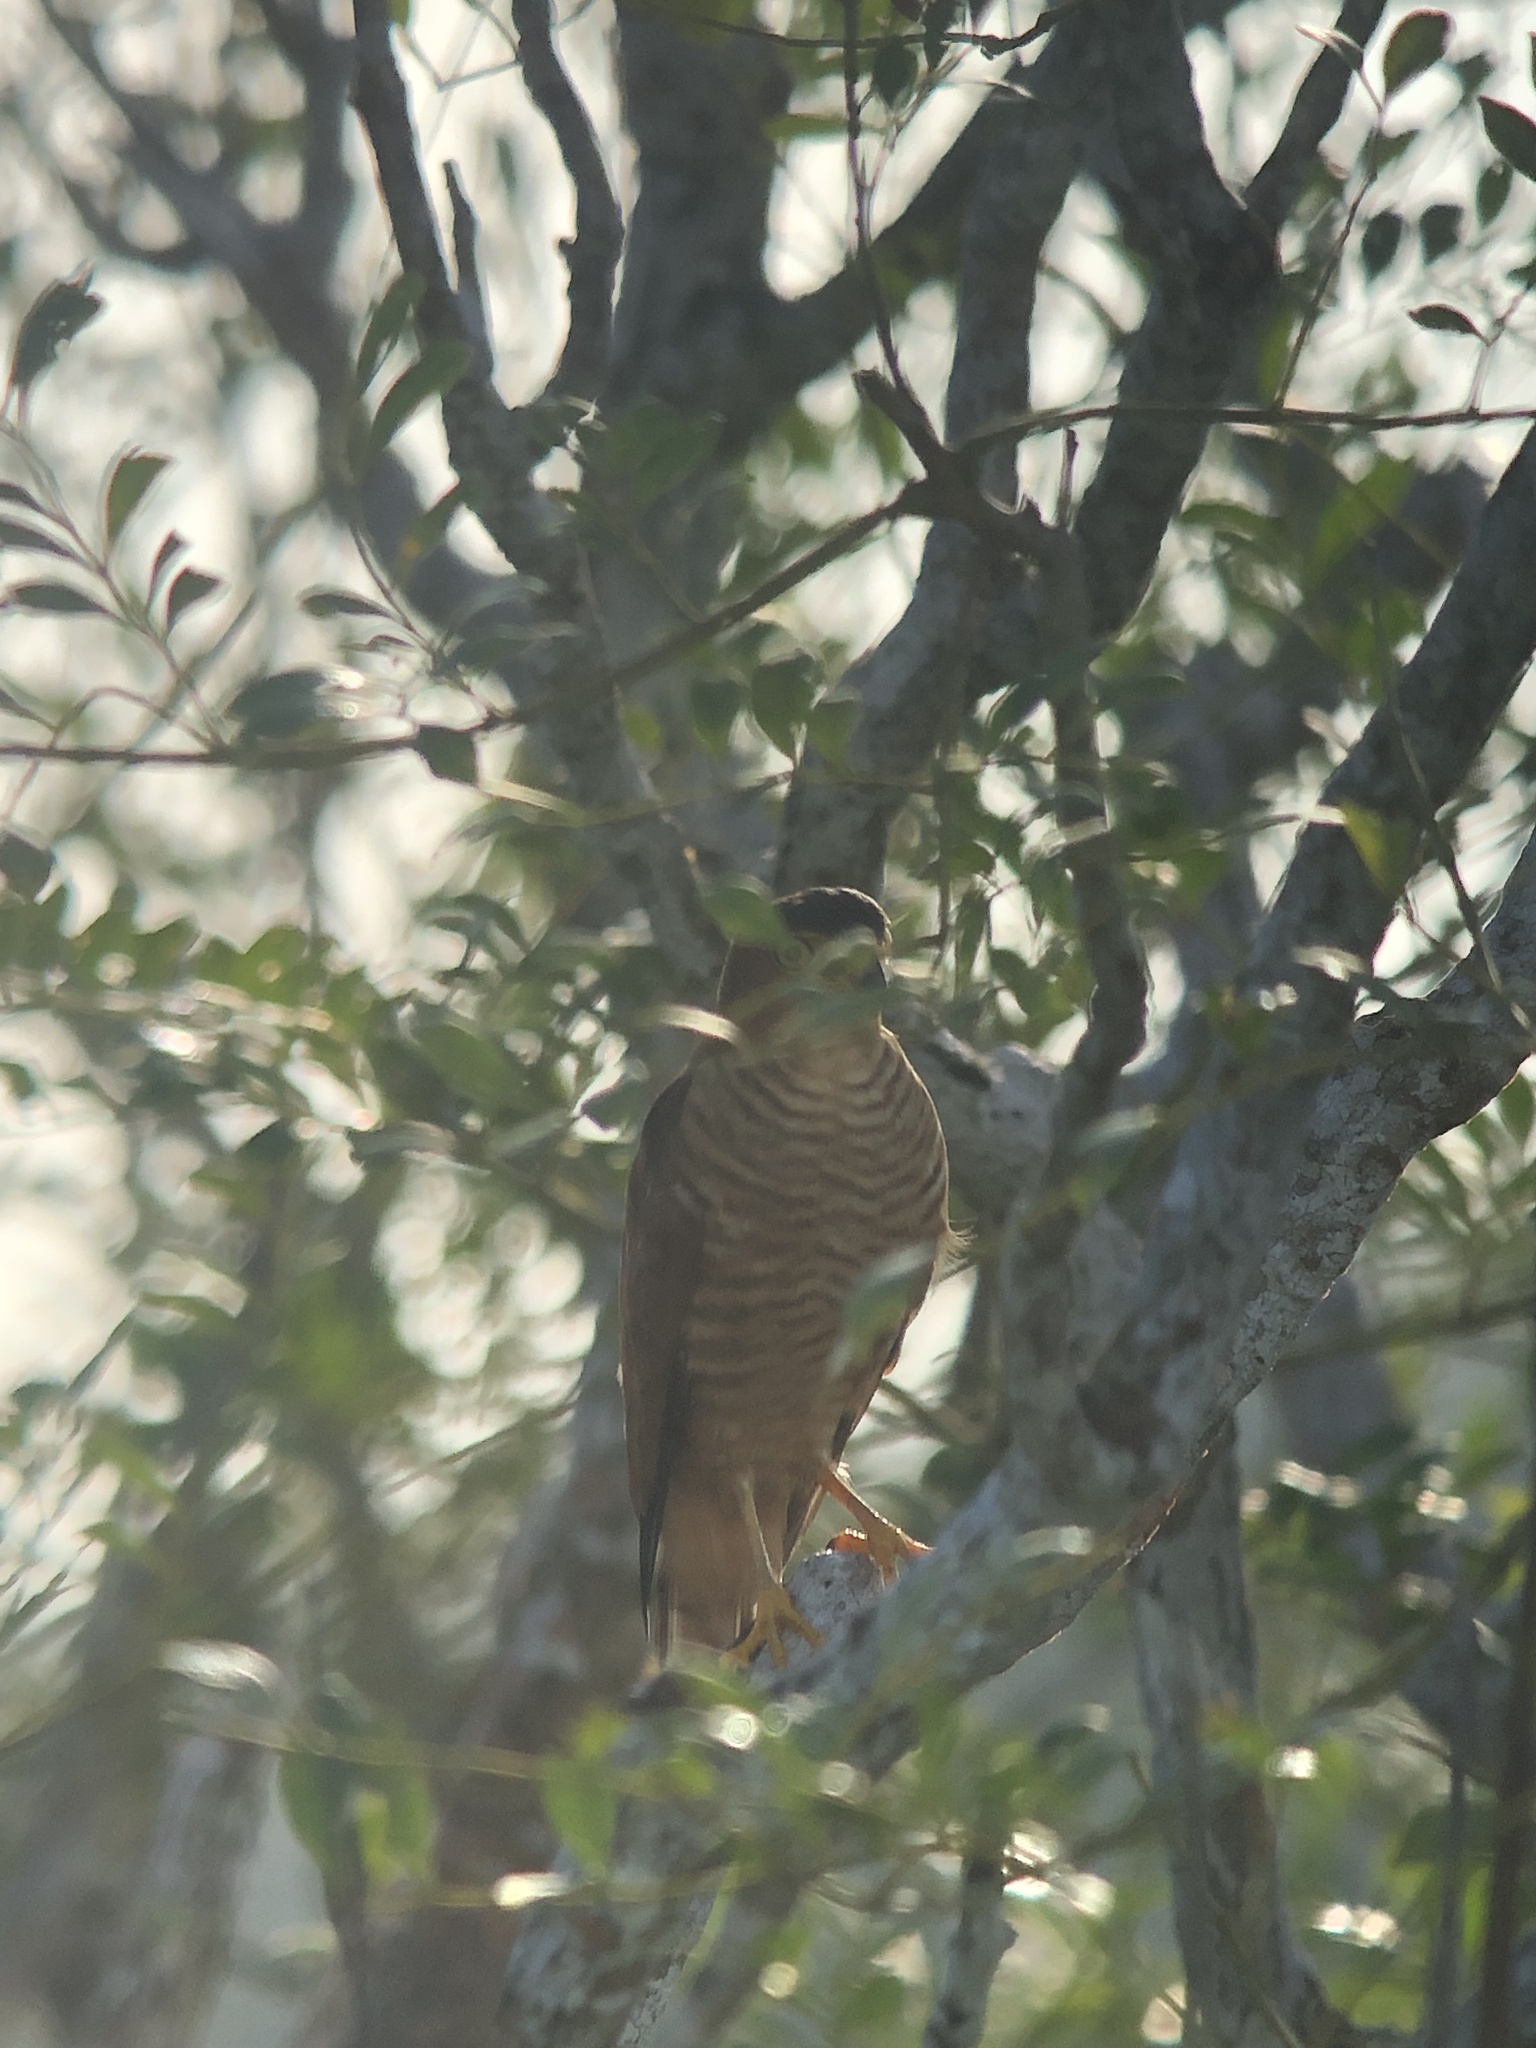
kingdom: Animalia
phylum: Chordata
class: Aves
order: Accipitriformes
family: Accipitridae
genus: Accipiter
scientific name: Accipiter superciliosus
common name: Tiny hawk
